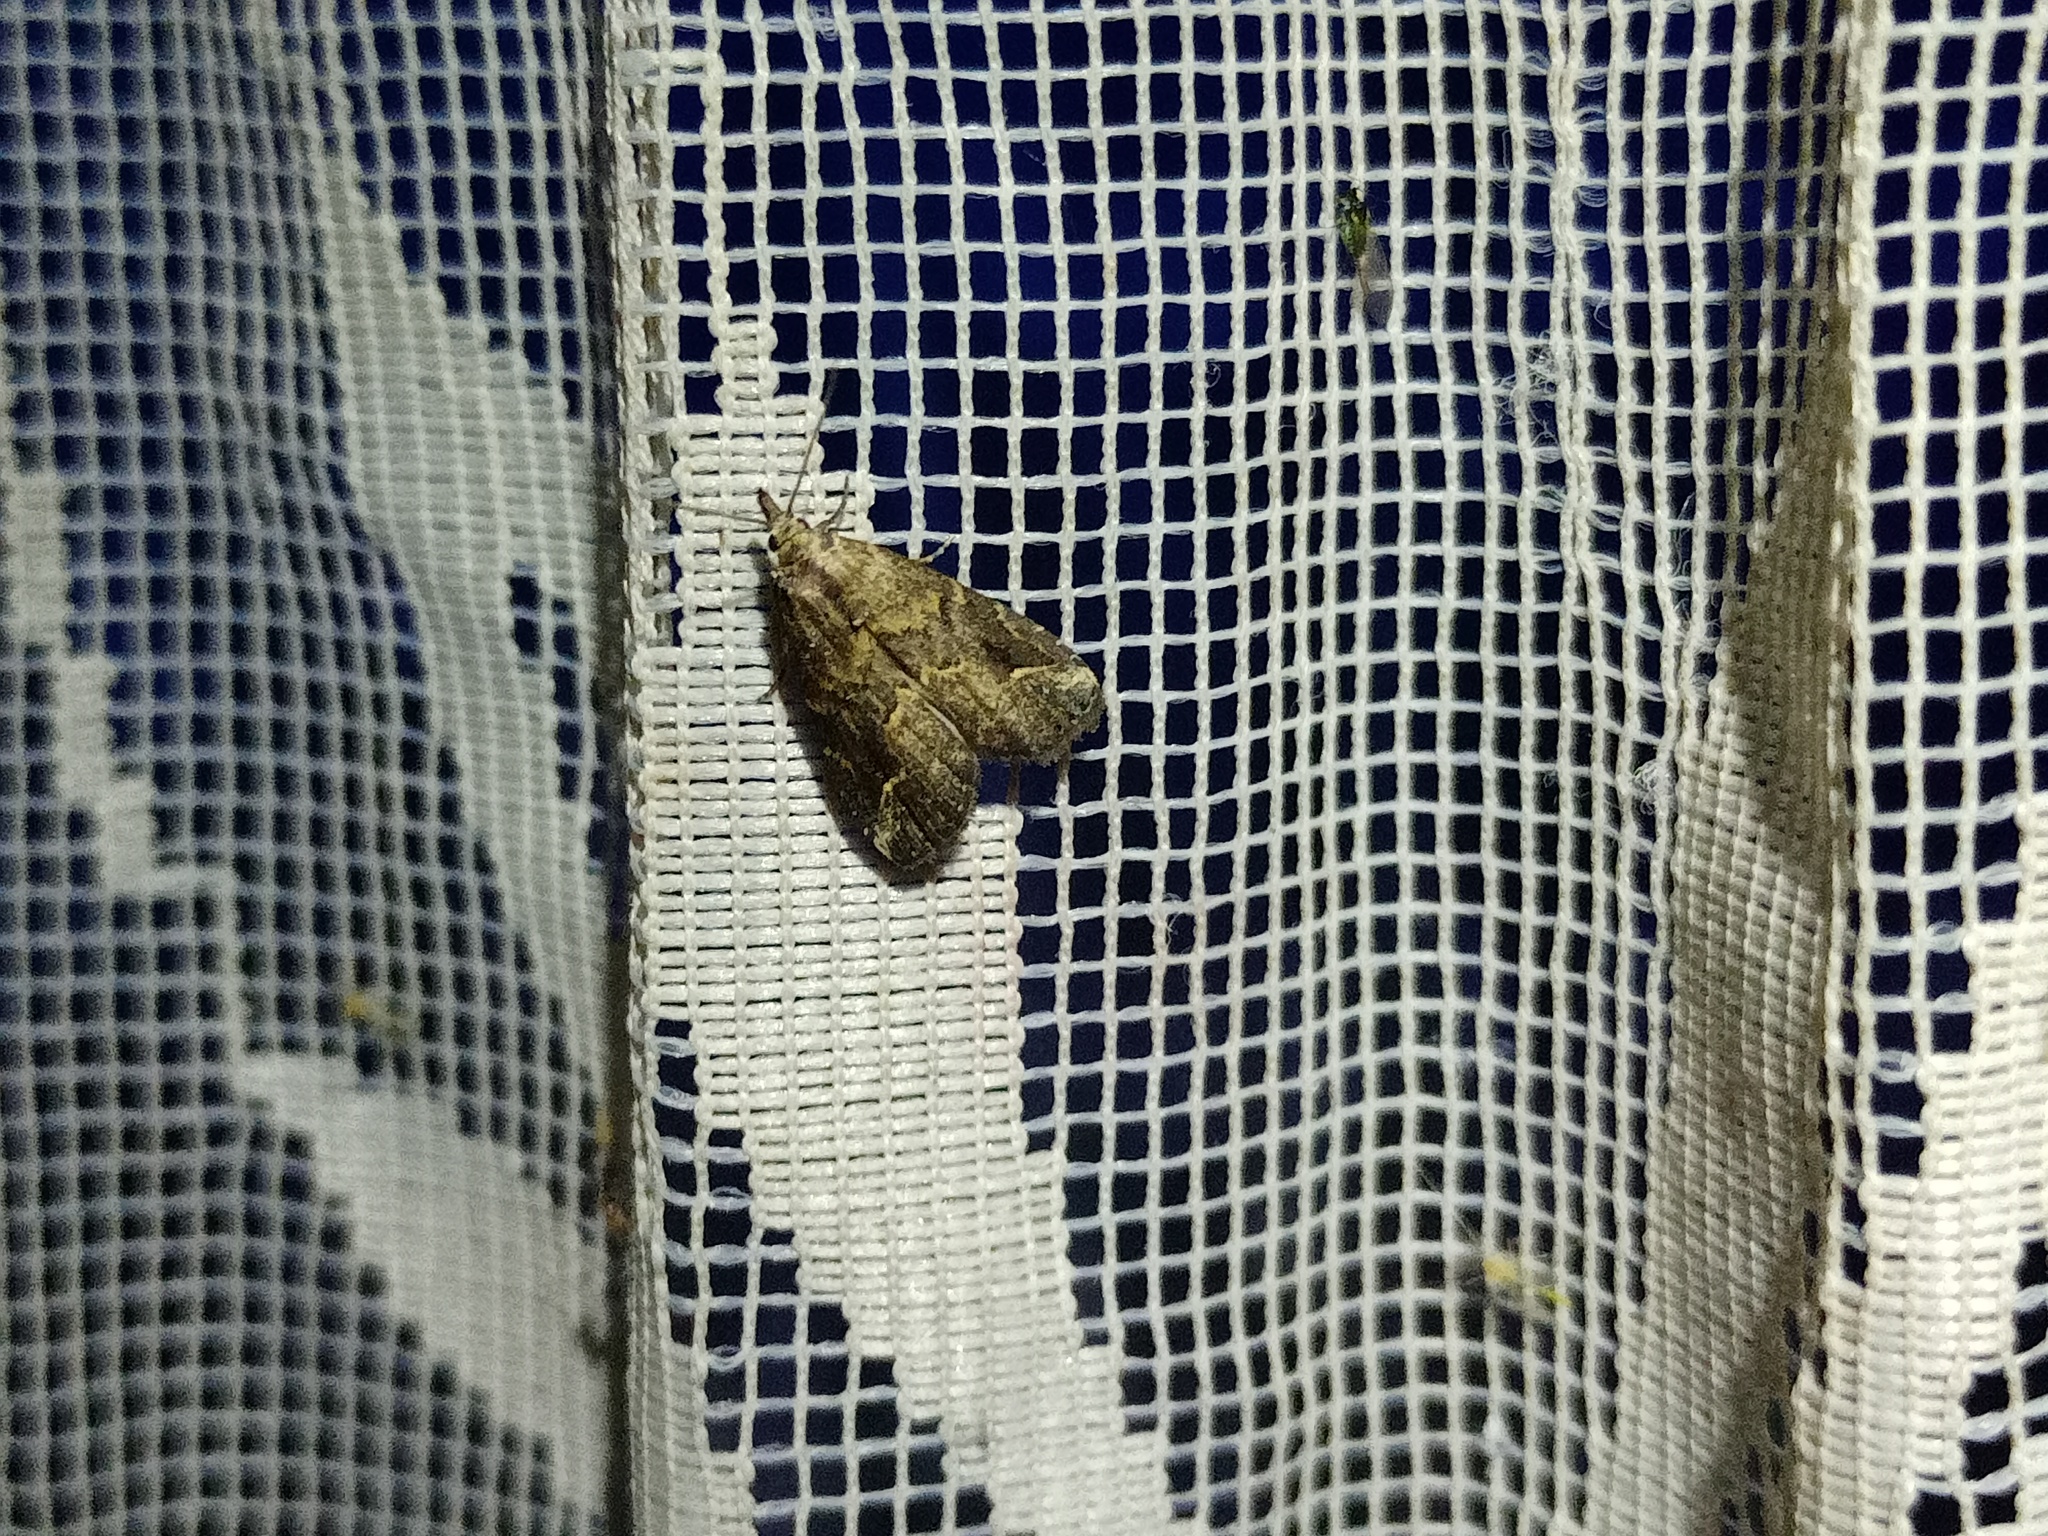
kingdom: Animalia
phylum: Arthropoda
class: Insecta
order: Lepidoptera
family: Erebidae
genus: Schrankia
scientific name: Schrankia costaestrigalis
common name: Pinion-streaked snout
